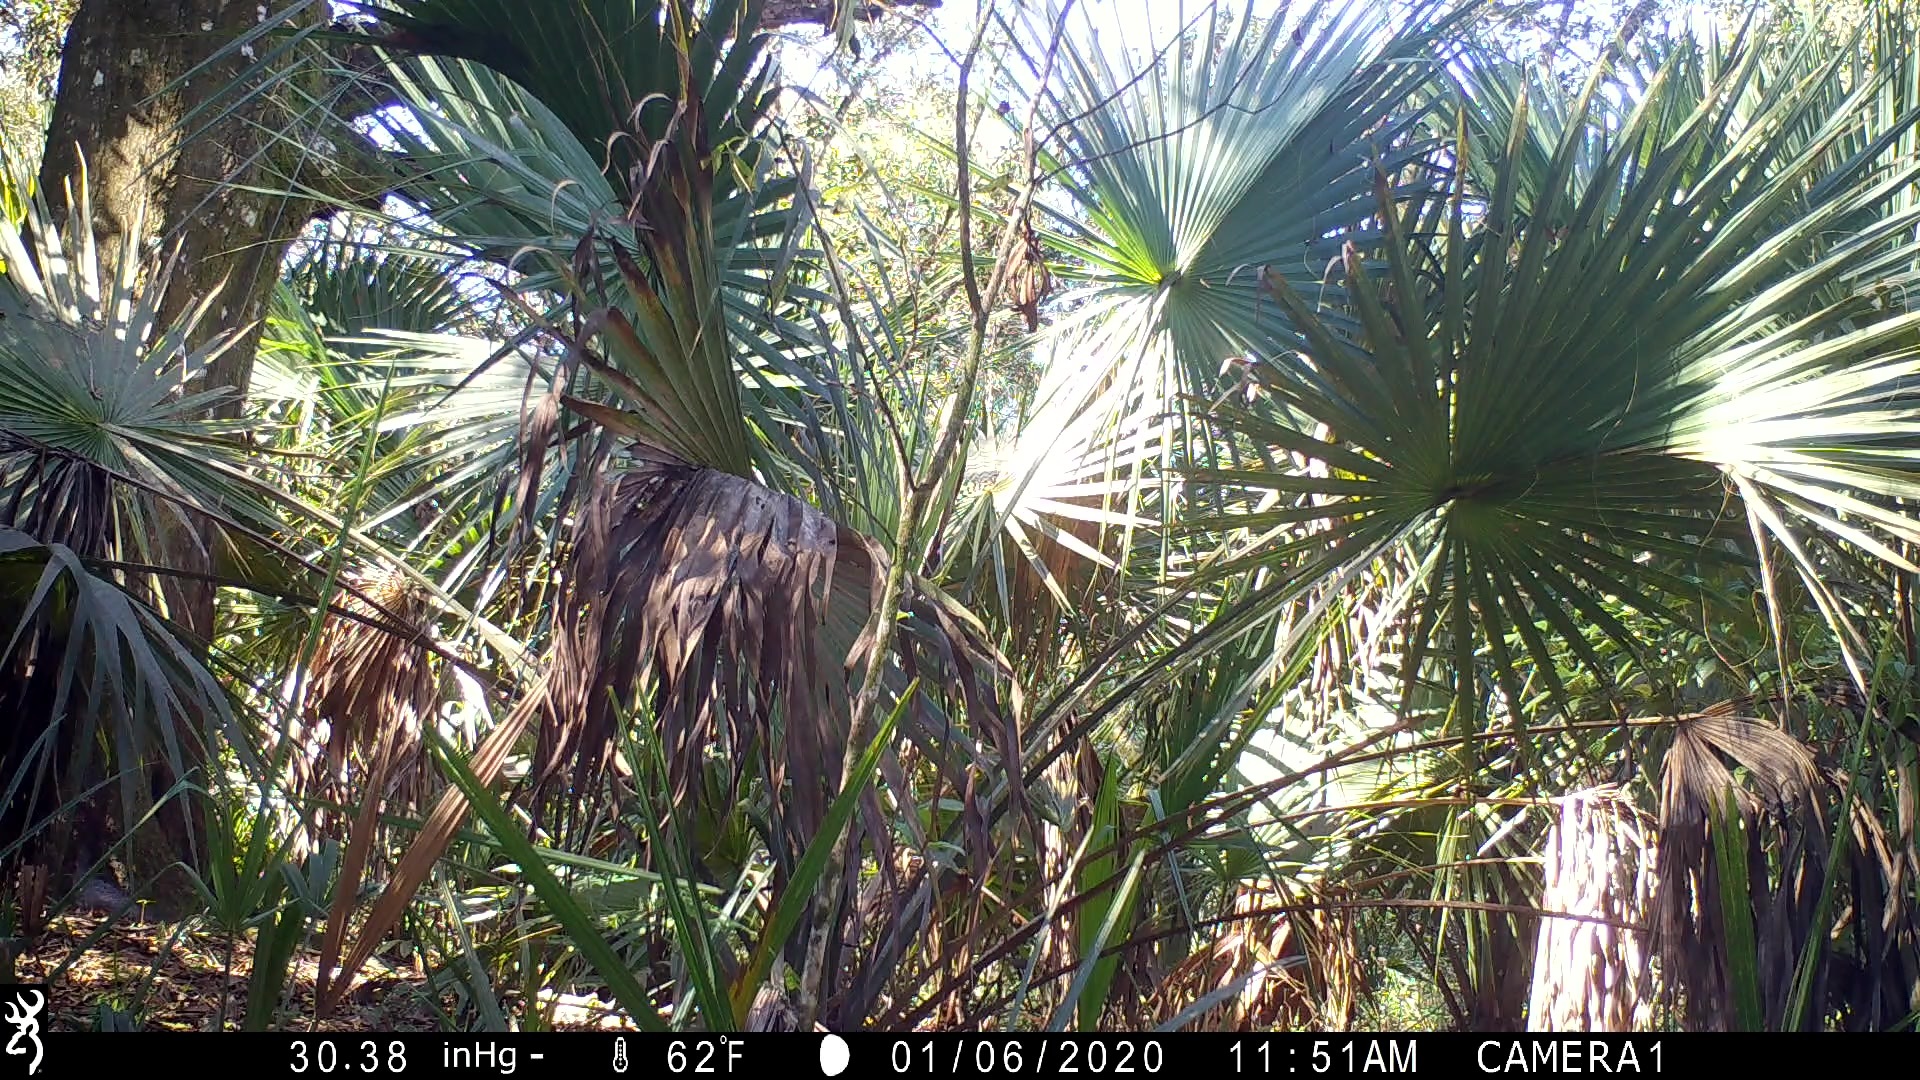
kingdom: Plantae
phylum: Tracheophyta
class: Liliopsida
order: Arecales
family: Arecaceae
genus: Sabal
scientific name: Sabal palmetto
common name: Blue palmetto
